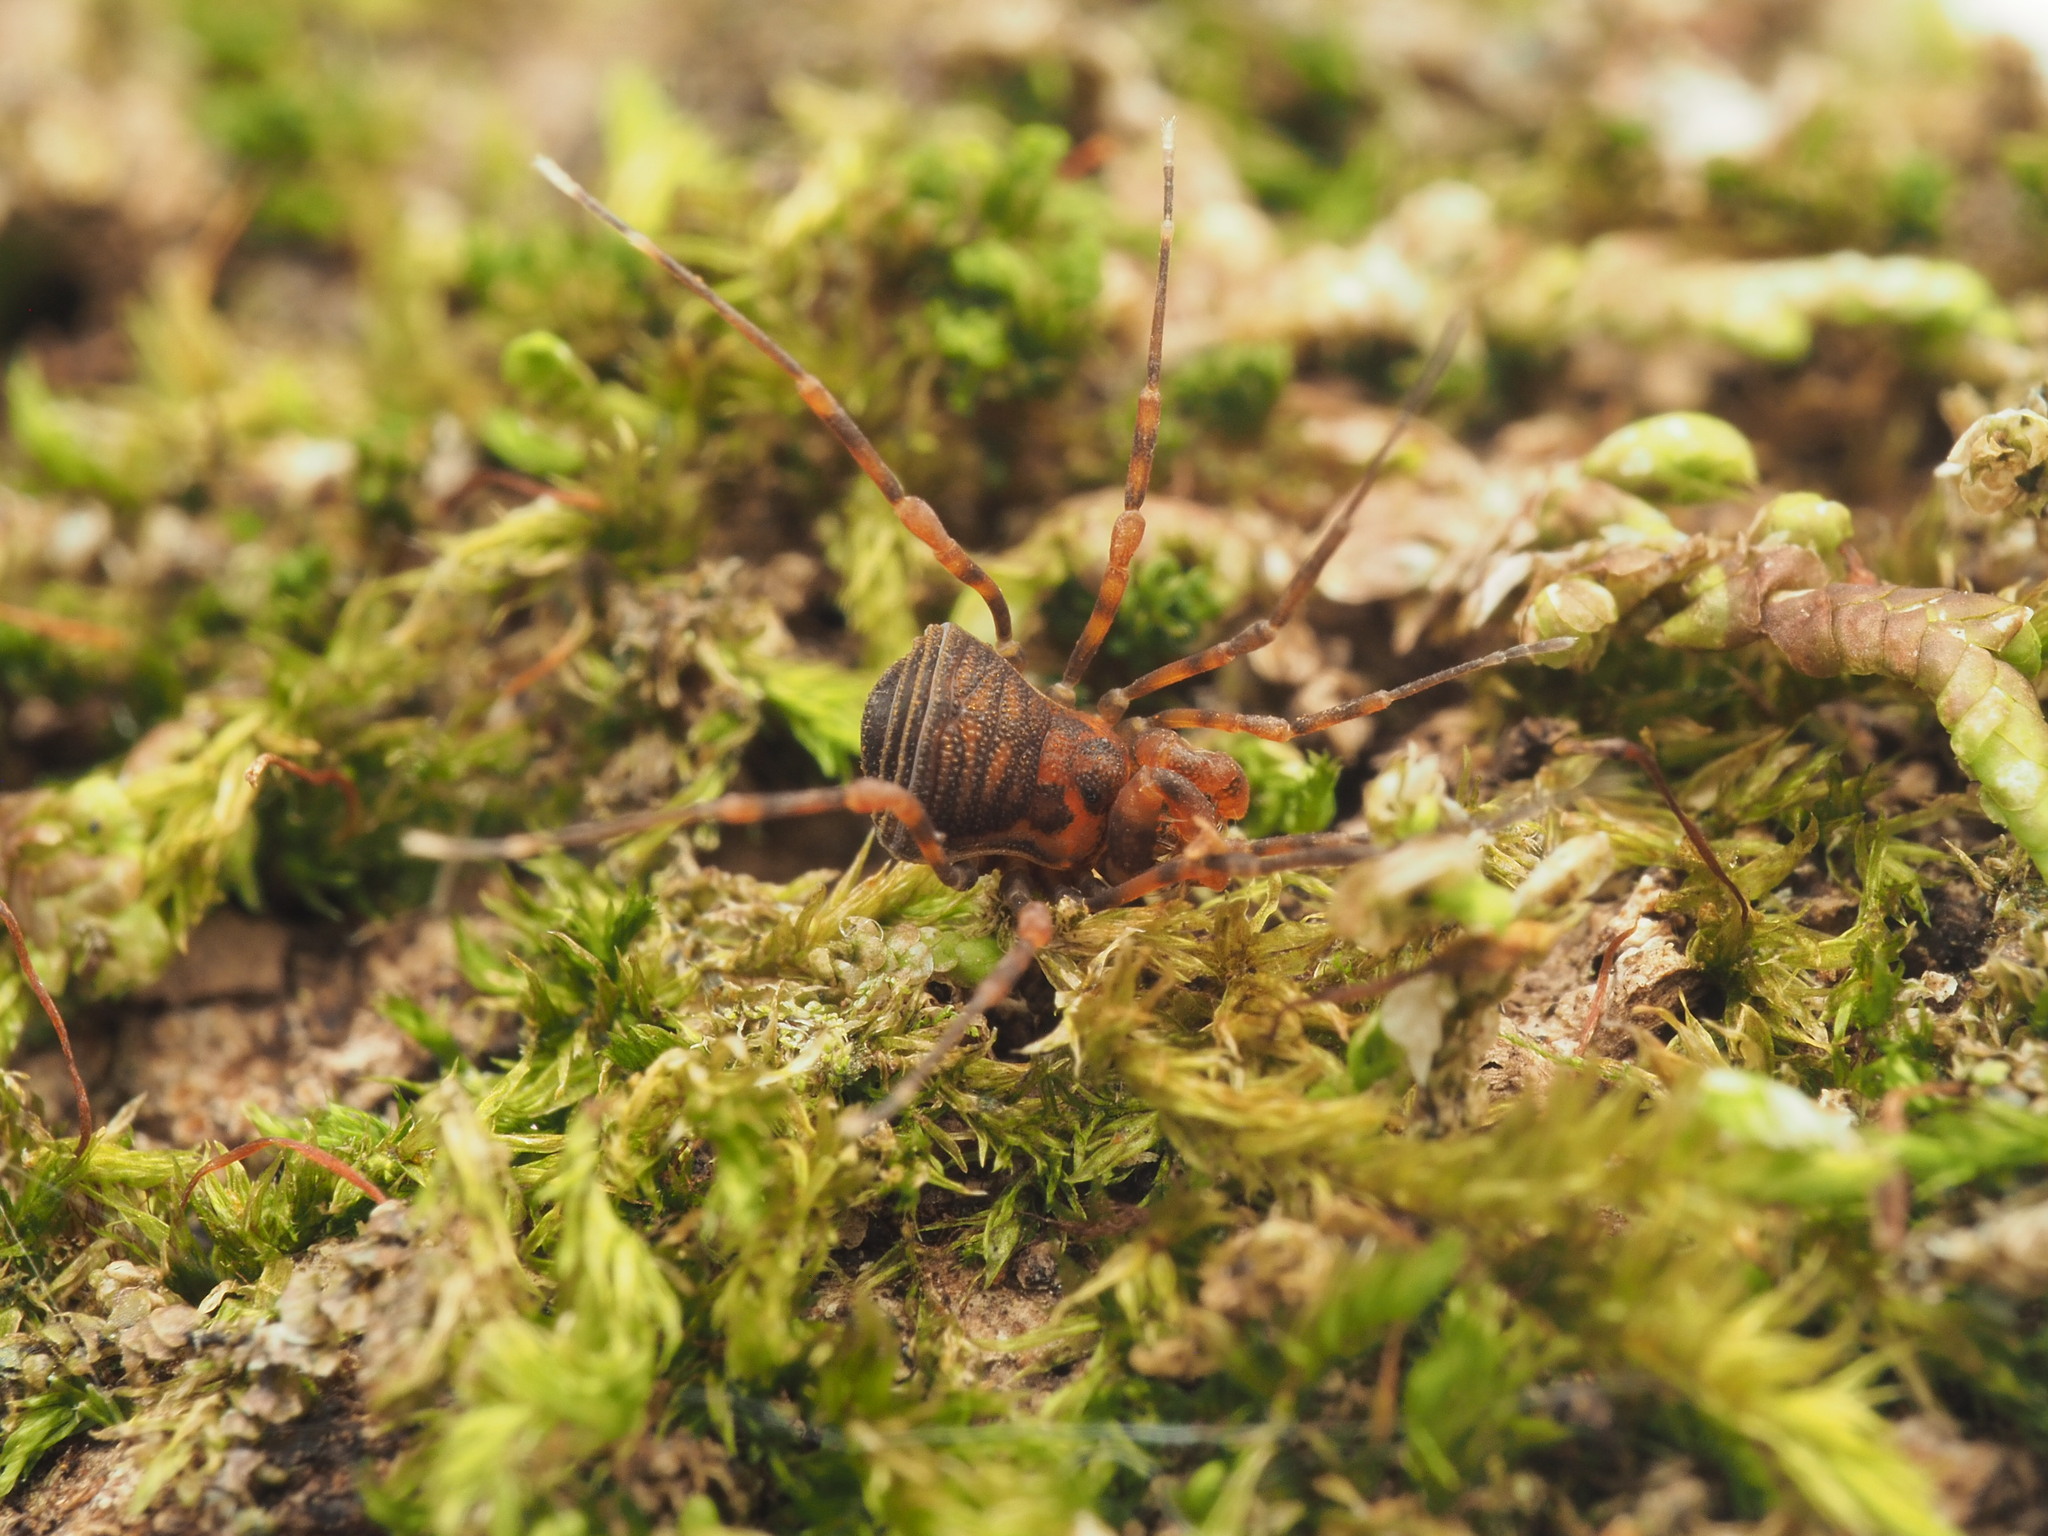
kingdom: Animalia
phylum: Arthropoda
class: Arachnida
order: Opiliones
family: Phalangodidae
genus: Bogania
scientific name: Bogania
